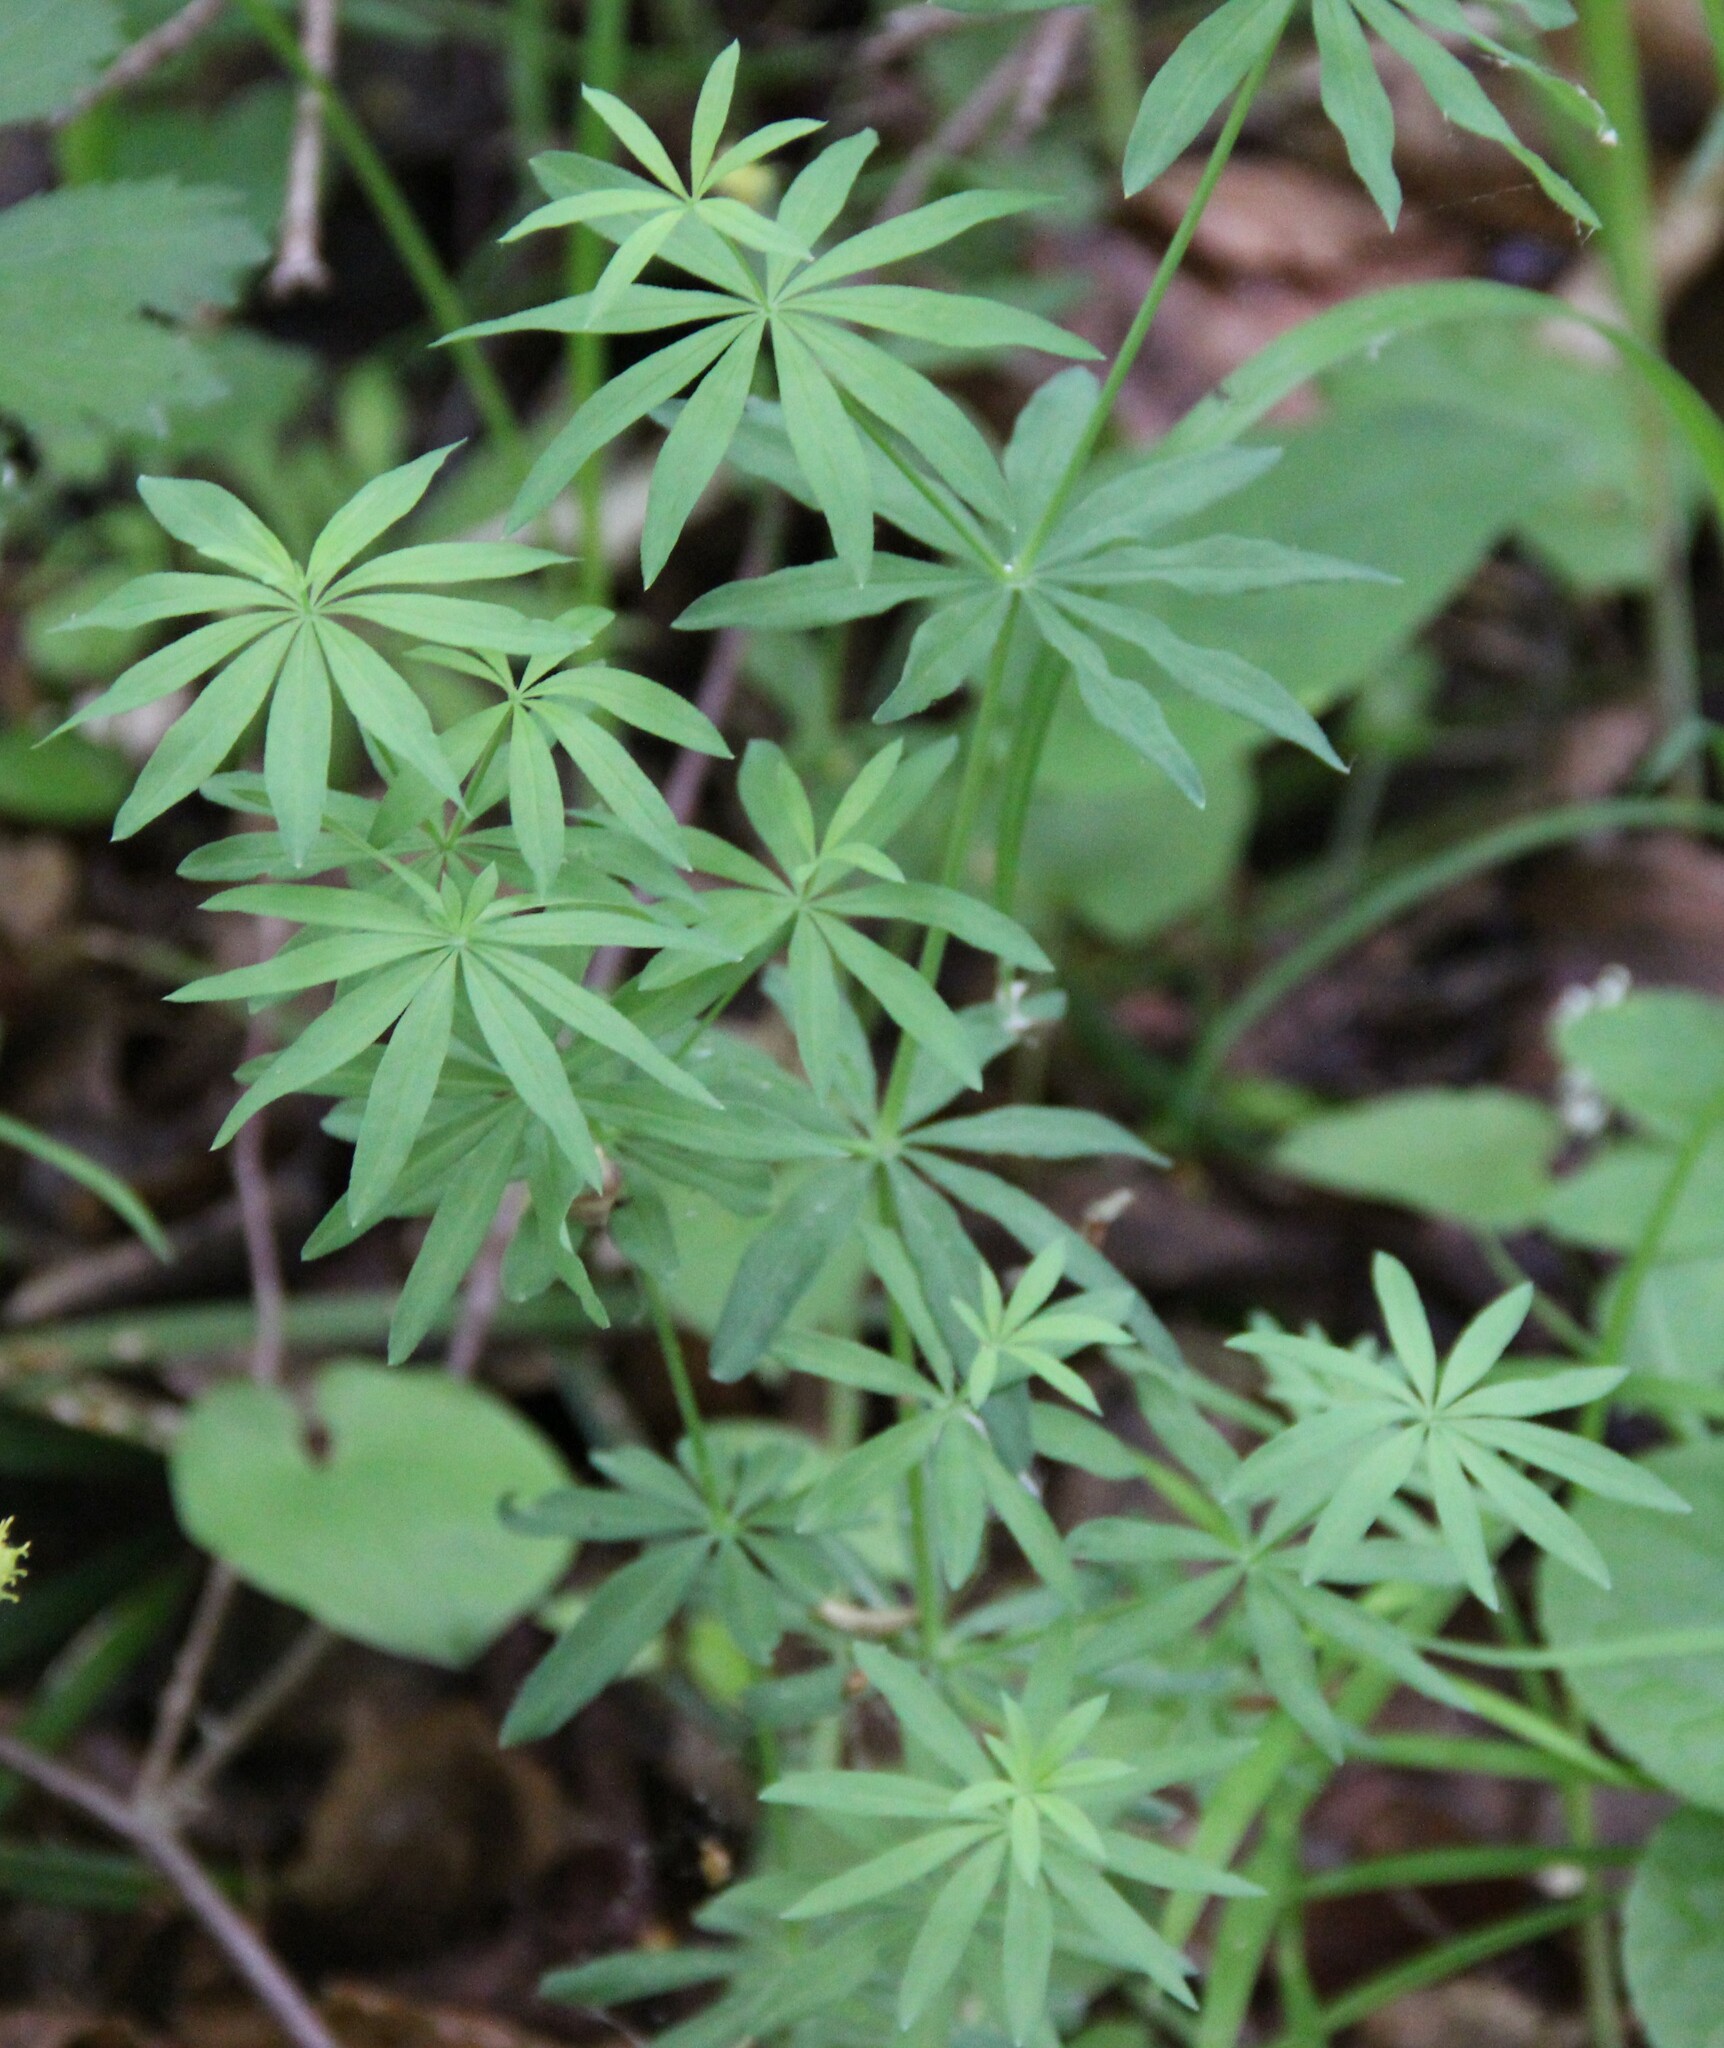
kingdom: Plantae
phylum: Tracheophyta
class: Magnoliopsida
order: Gentianales
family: Rubiaceae
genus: Galium
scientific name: Galium intermedium
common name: Bedstraw
